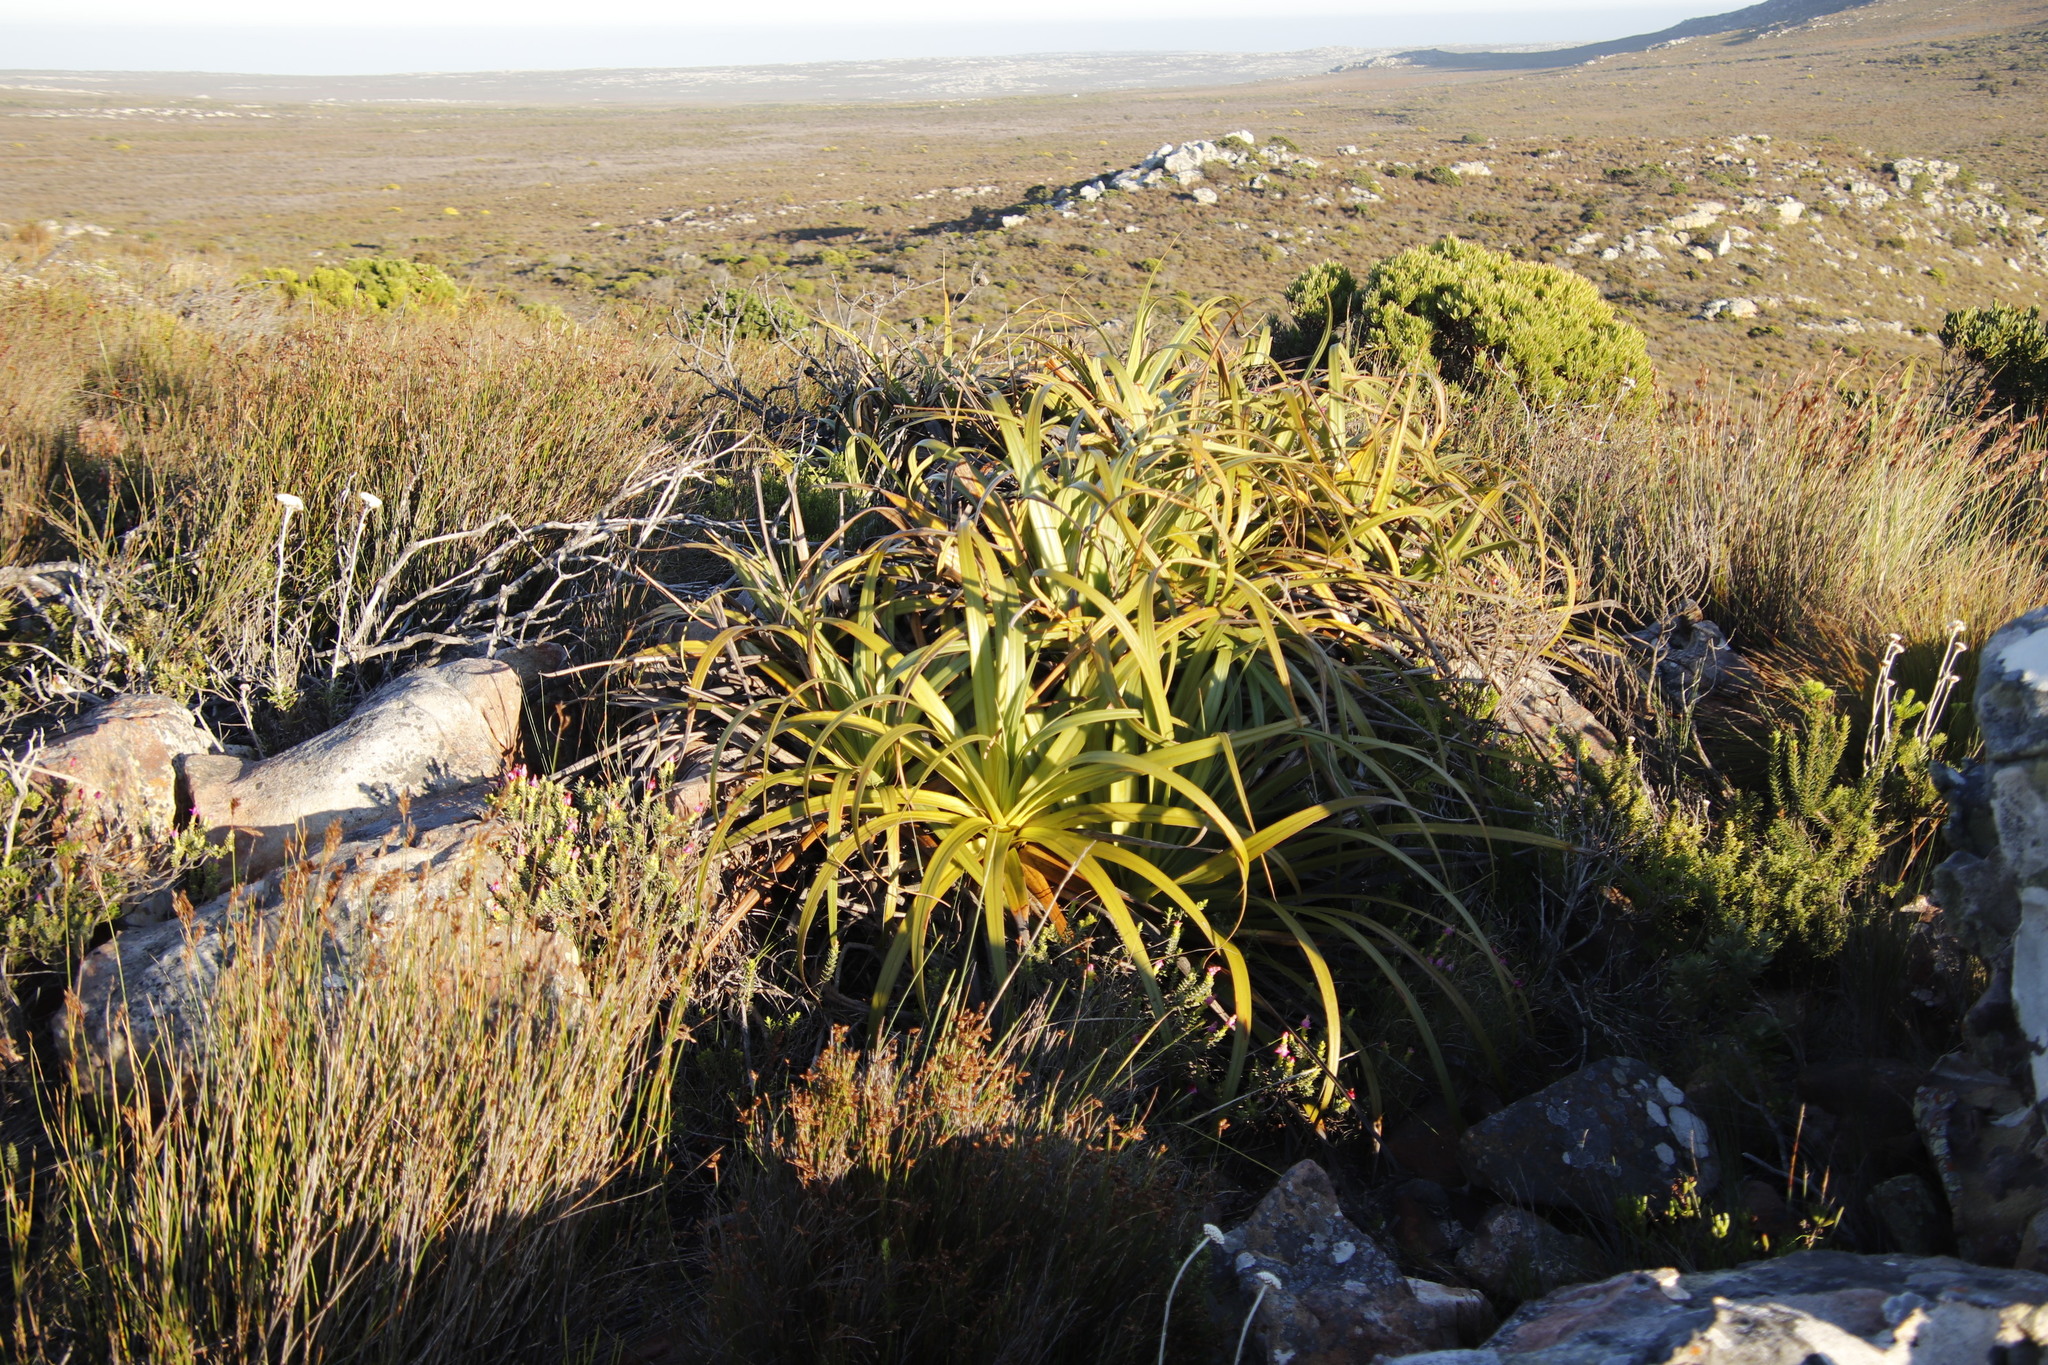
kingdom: Plantae
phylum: Tracheophyta
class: Liliopsida
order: Poales
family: Cyperaceae
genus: Tetraria
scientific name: Tetraria thermalis
